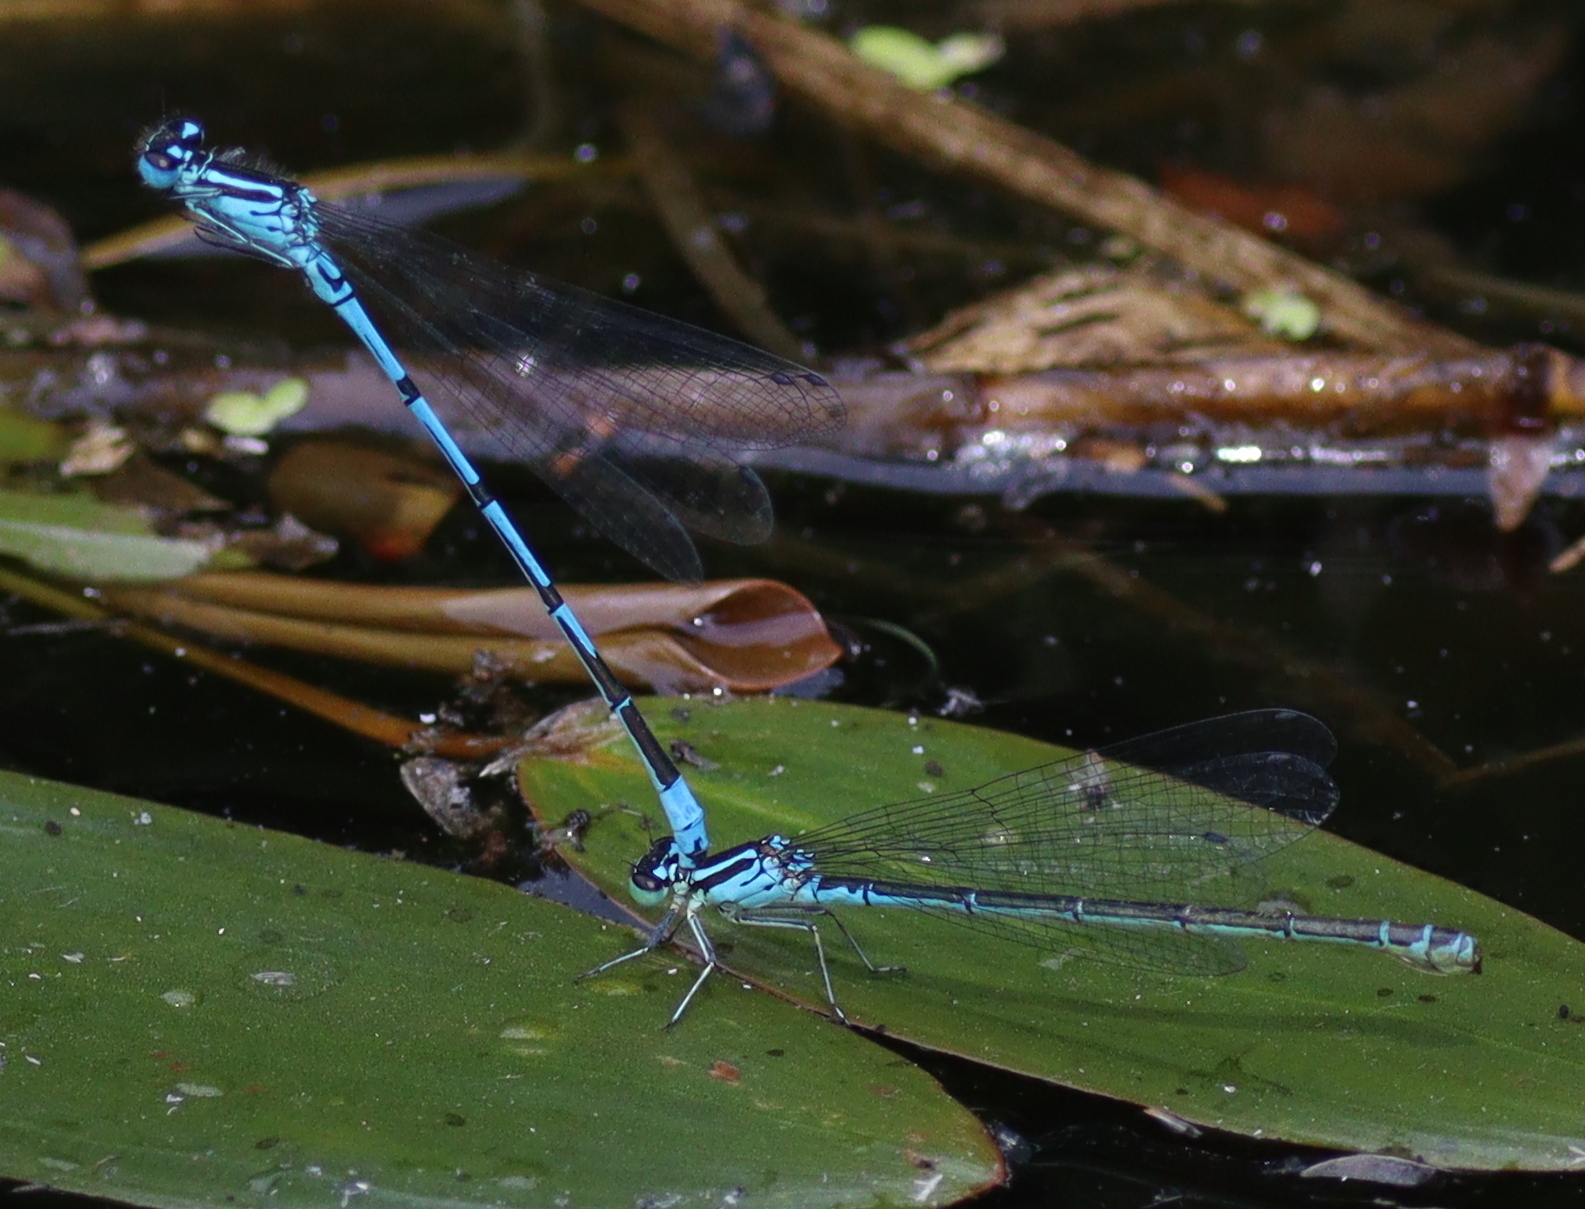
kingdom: Animalia
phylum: Arthropoda
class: Insecta
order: Odonata
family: Coenagrionidae
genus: Coenagrion
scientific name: Coenagrion puella
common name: Azure damselfly
